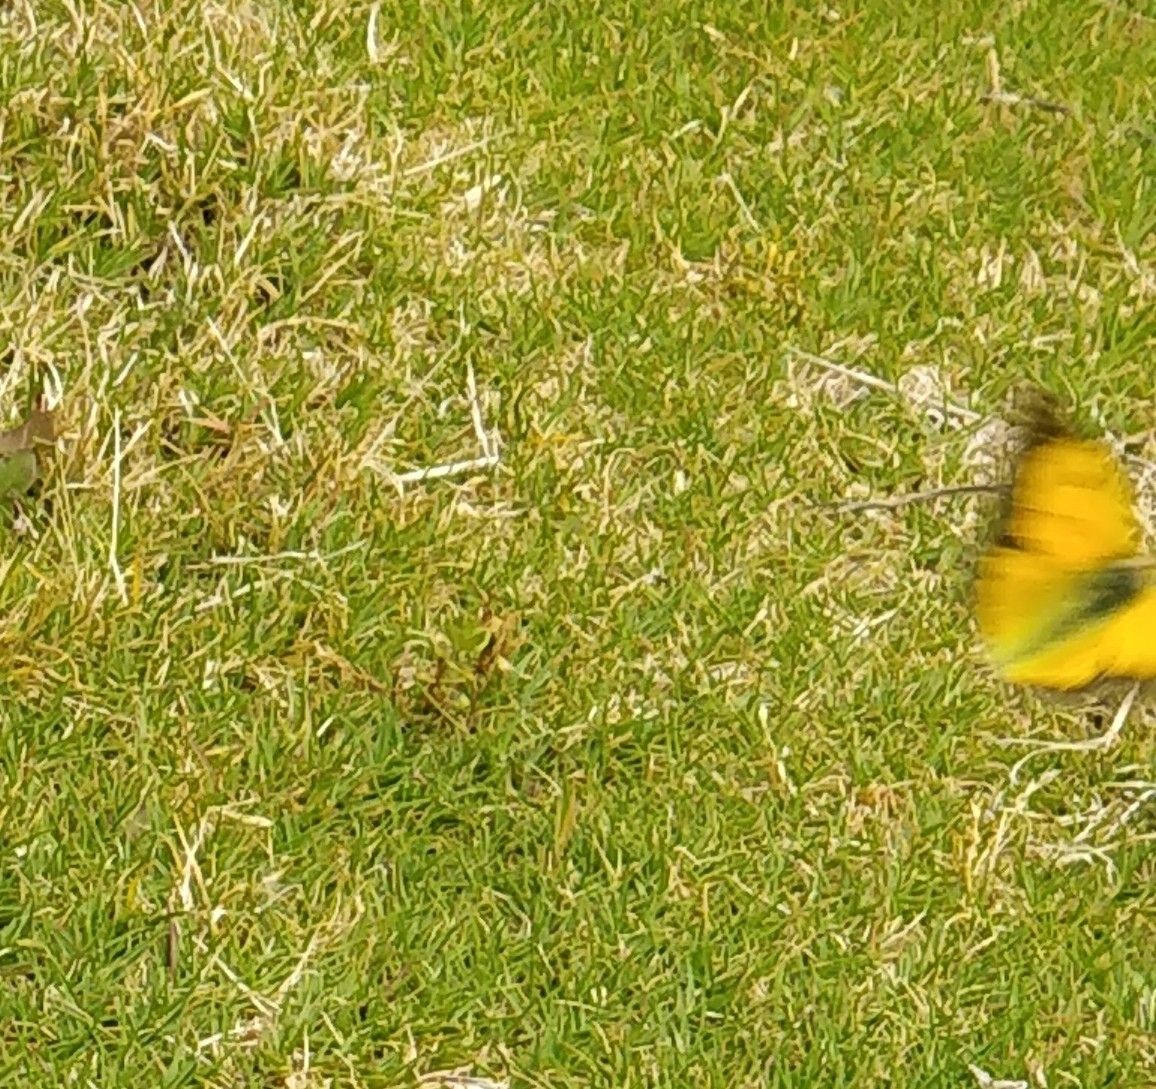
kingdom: Animalia
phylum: Arthropoda
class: Insecta
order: Lepidoptera
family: Pieridae
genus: Colias
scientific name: Colias croceus
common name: Clouded yellow
